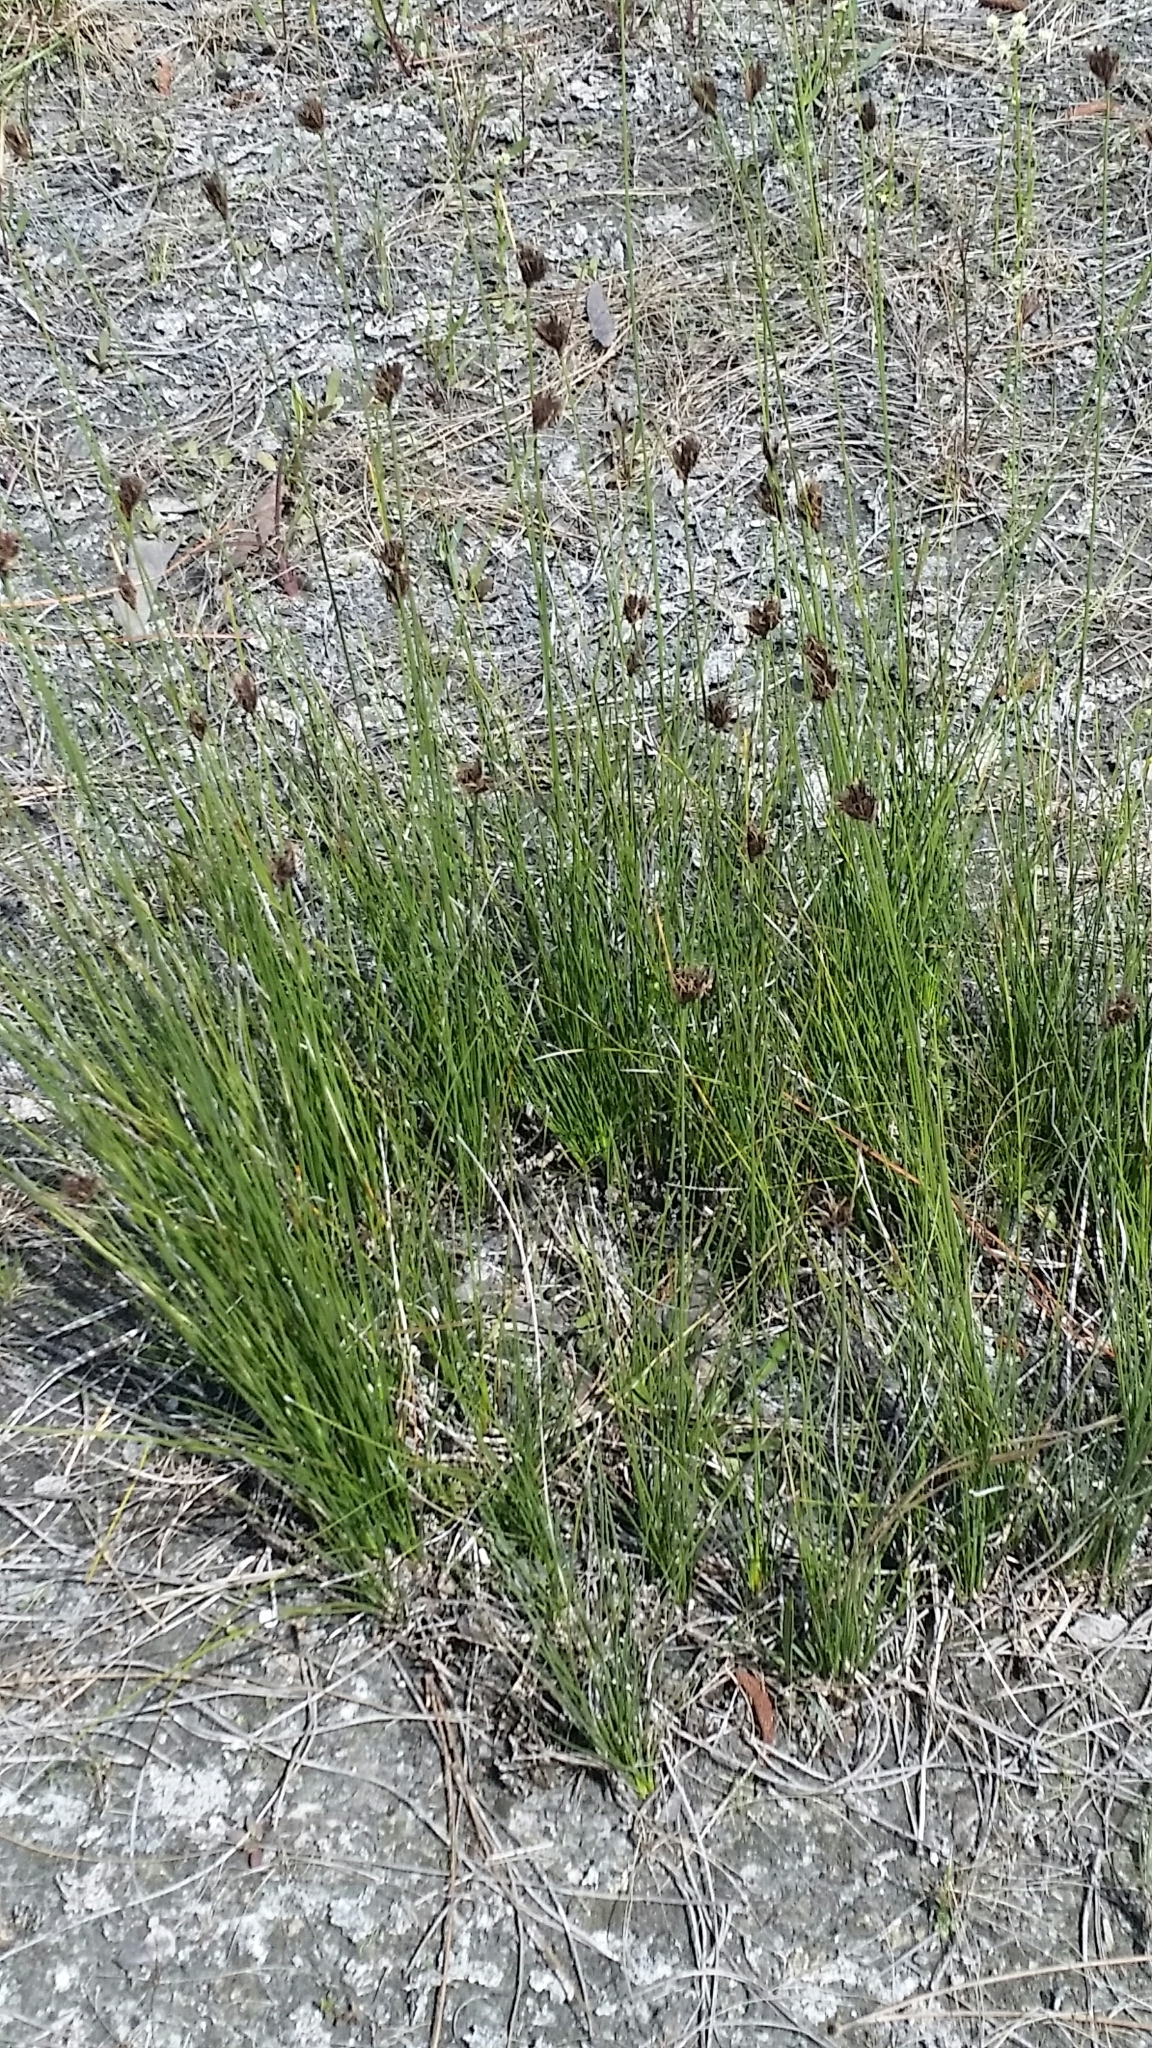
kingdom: Plantae
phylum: Tracheophyta
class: Liliopsida
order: Poales
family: Cyperaceae
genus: Schoenus
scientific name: Schoenus nigricans
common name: Black bog-rush
